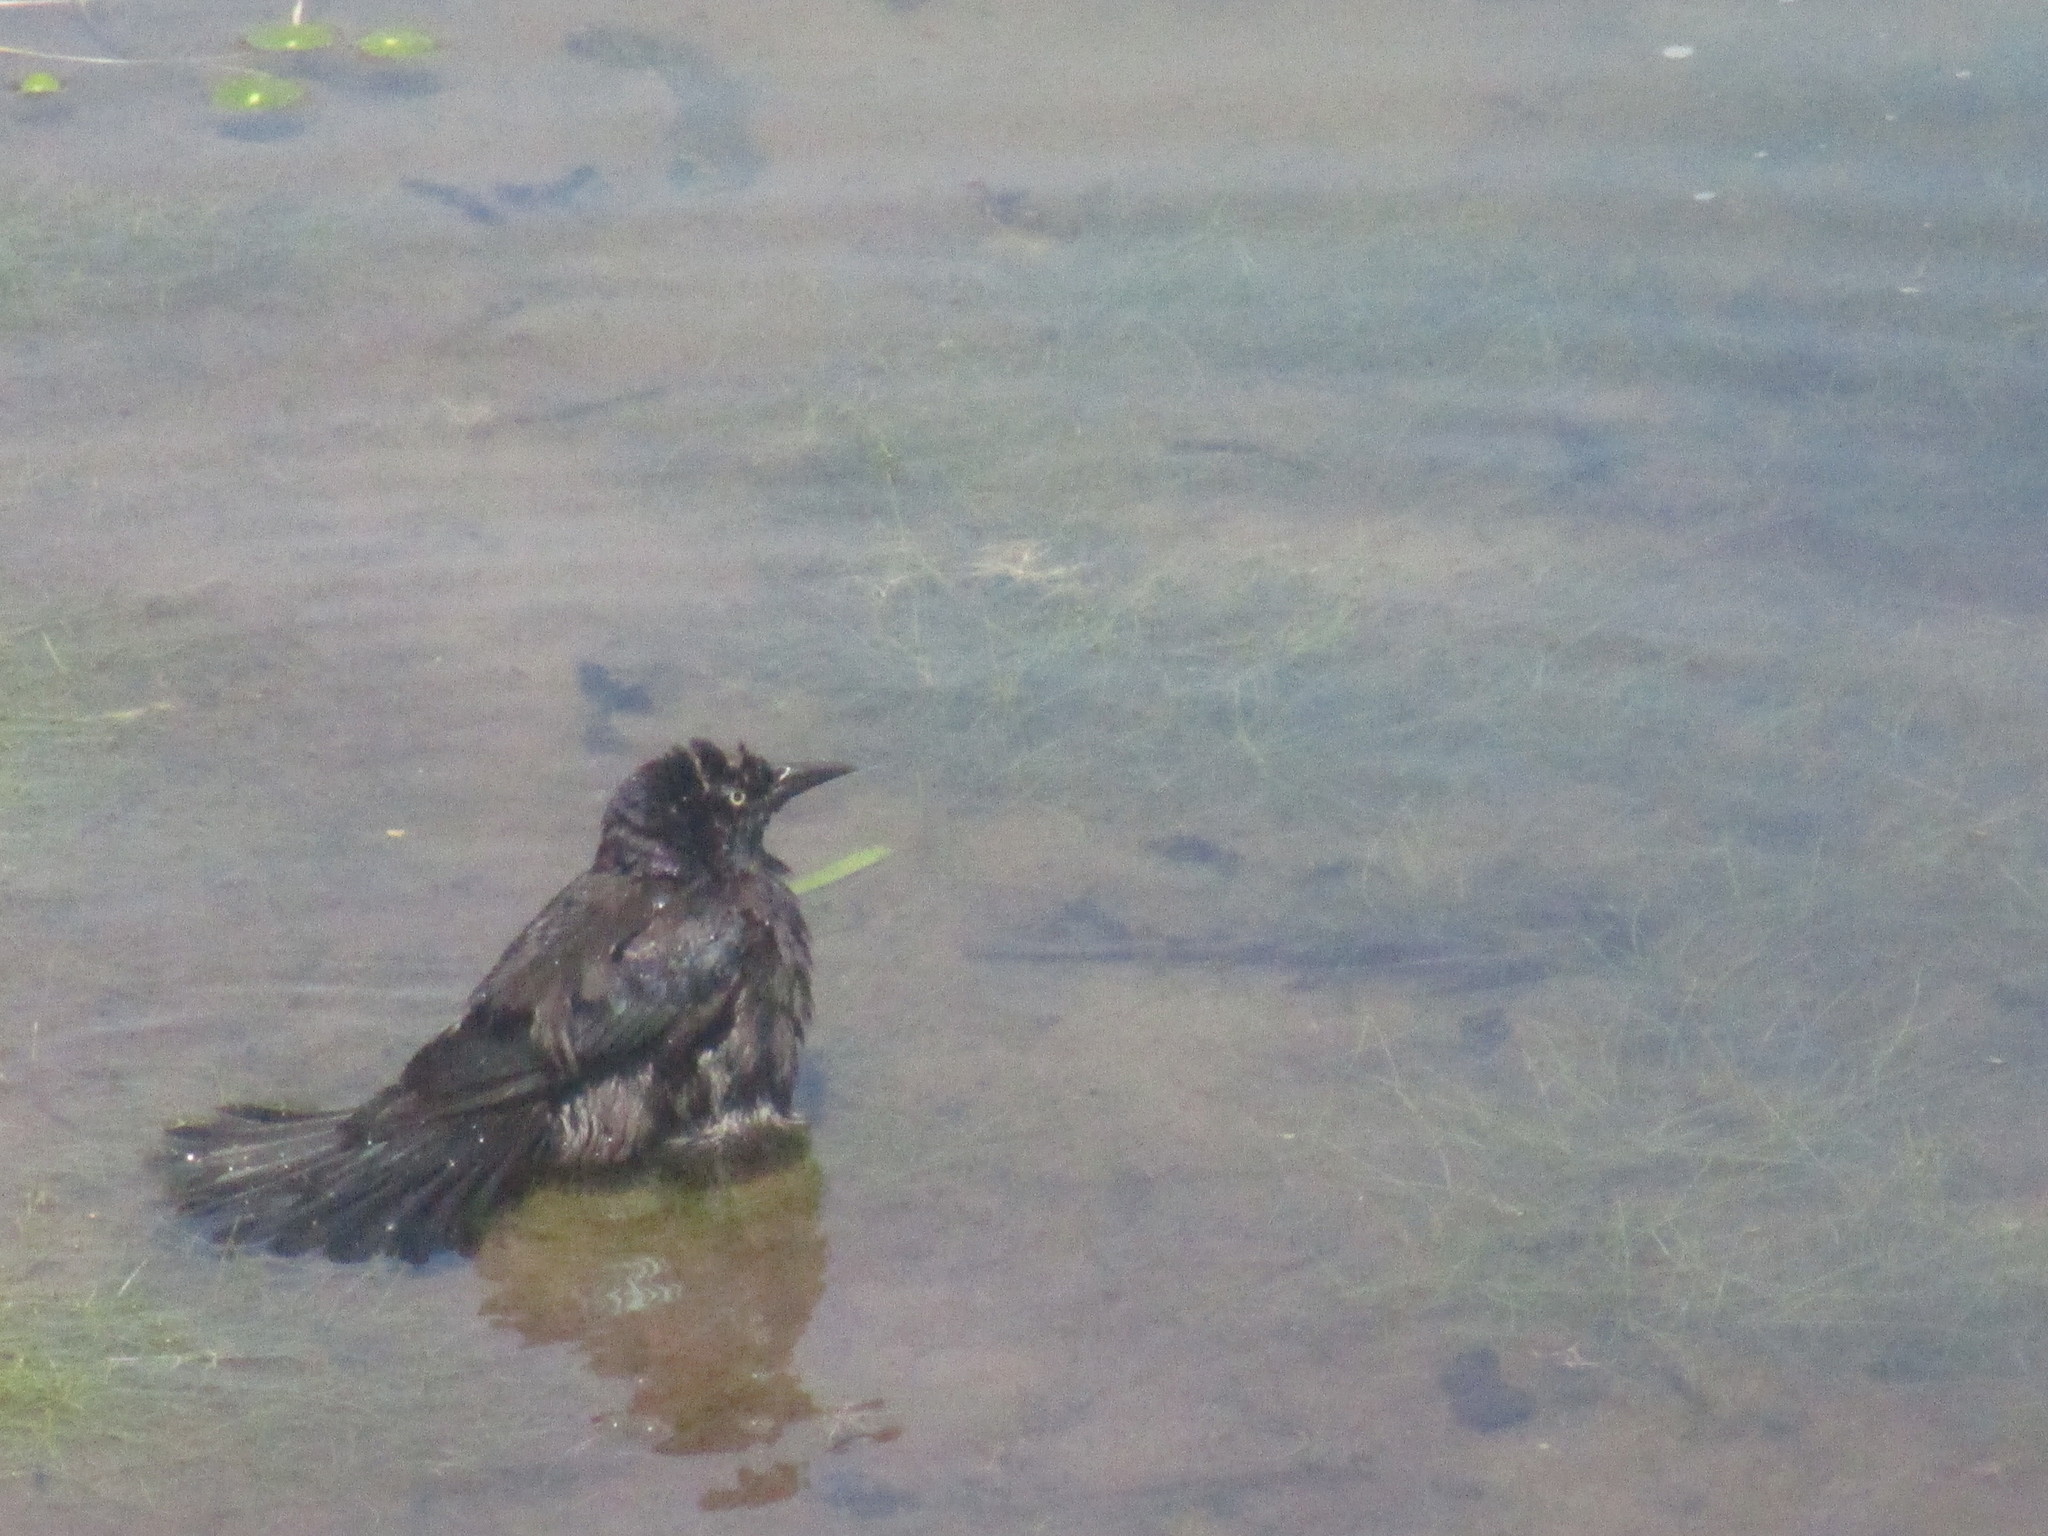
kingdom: Animalia
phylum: Chordata
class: Aves
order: Passeriformes
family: Icteridae
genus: Quiscalus
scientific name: Quiscalus quiscula
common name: Common grackle
